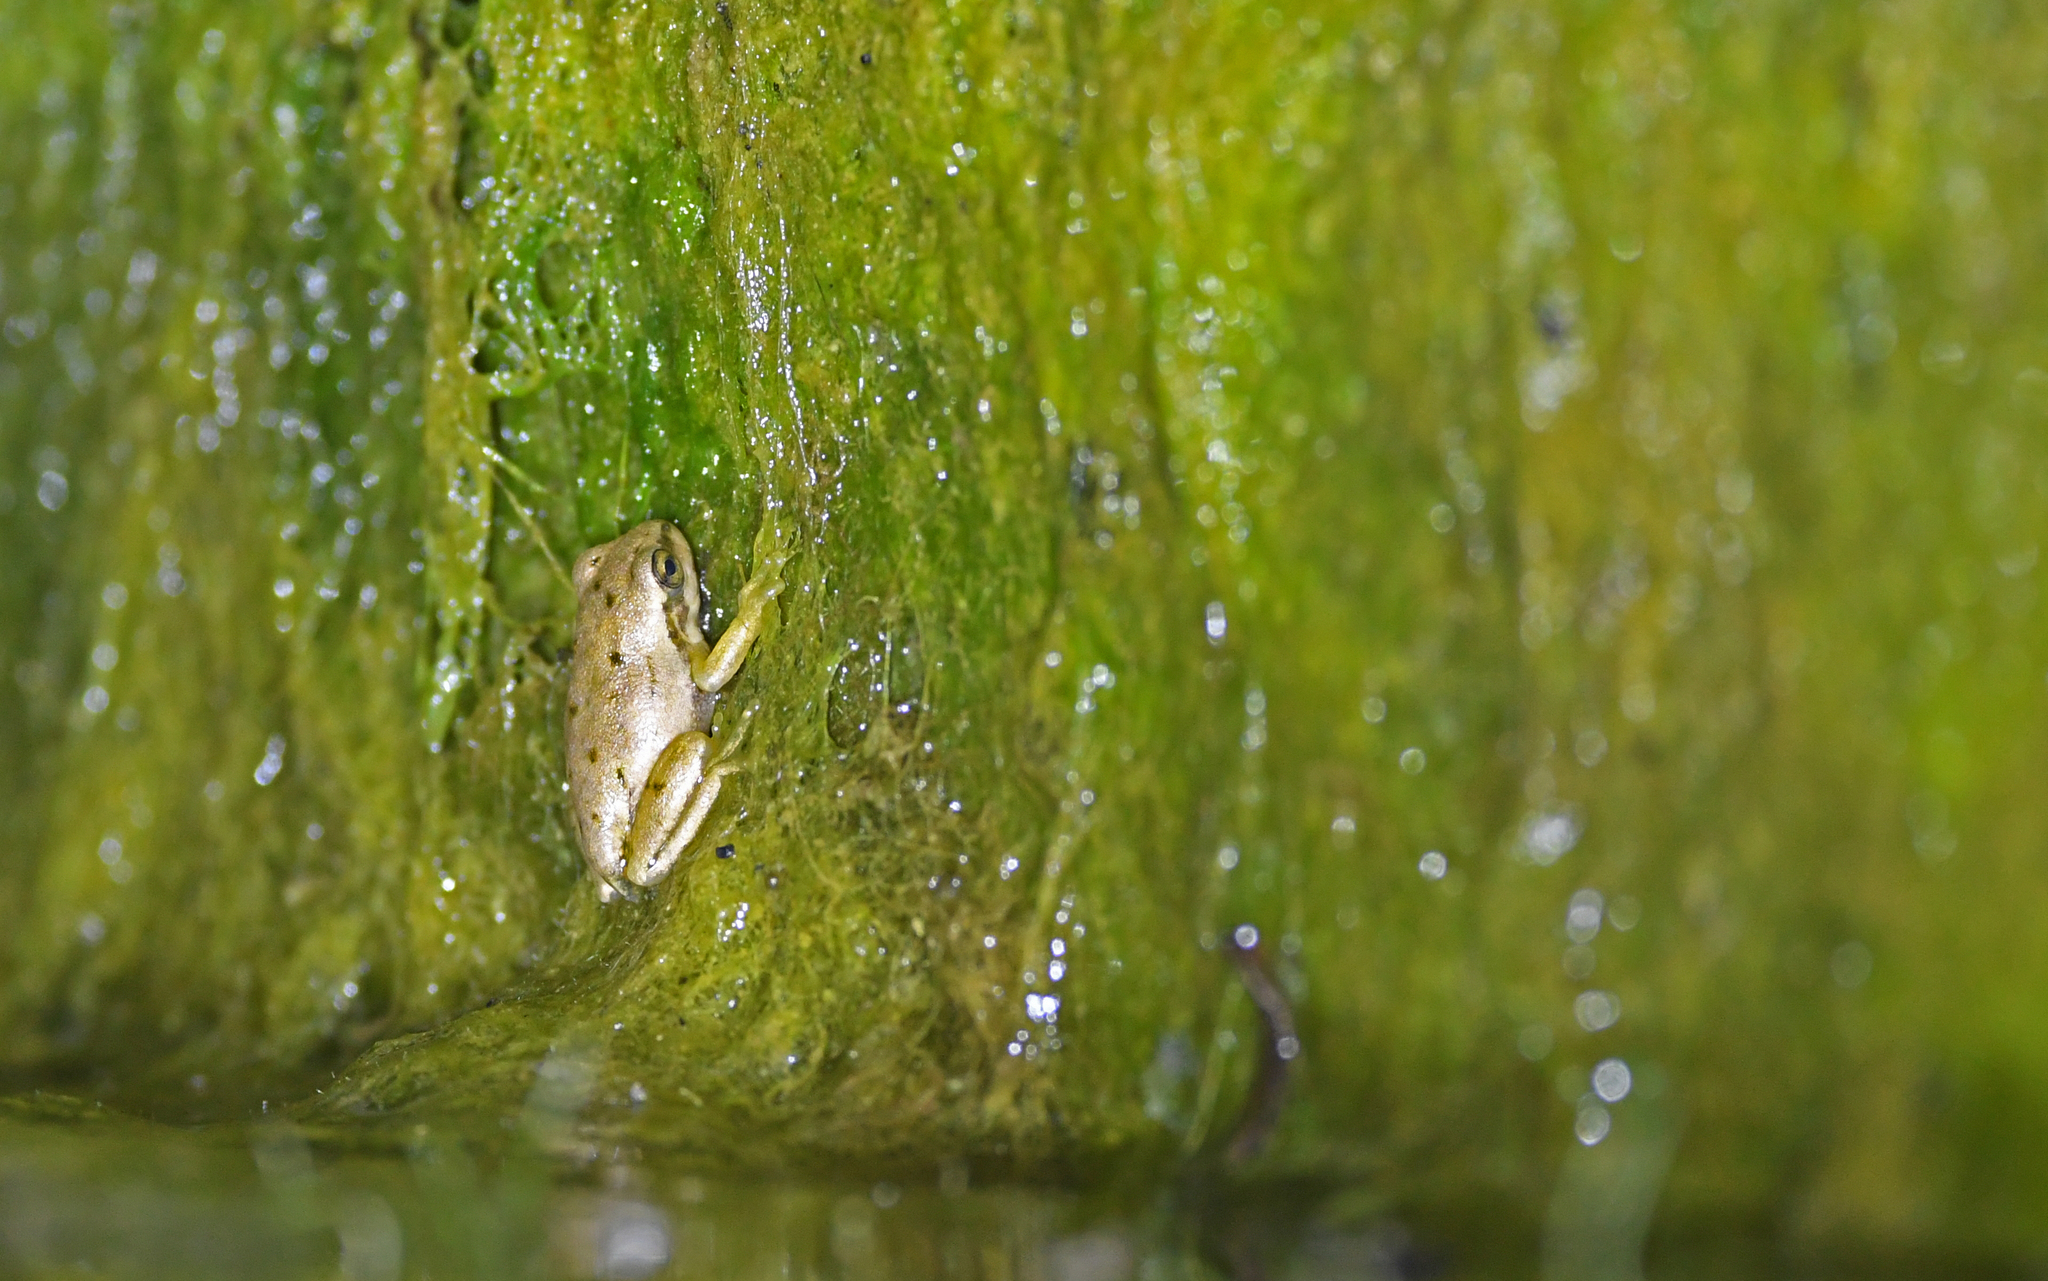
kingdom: Animalia
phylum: Chordata
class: Amphibia
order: Anura
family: Hylidae
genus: Hyla
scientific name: Hyla sarda
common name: Sardinian tree frog
